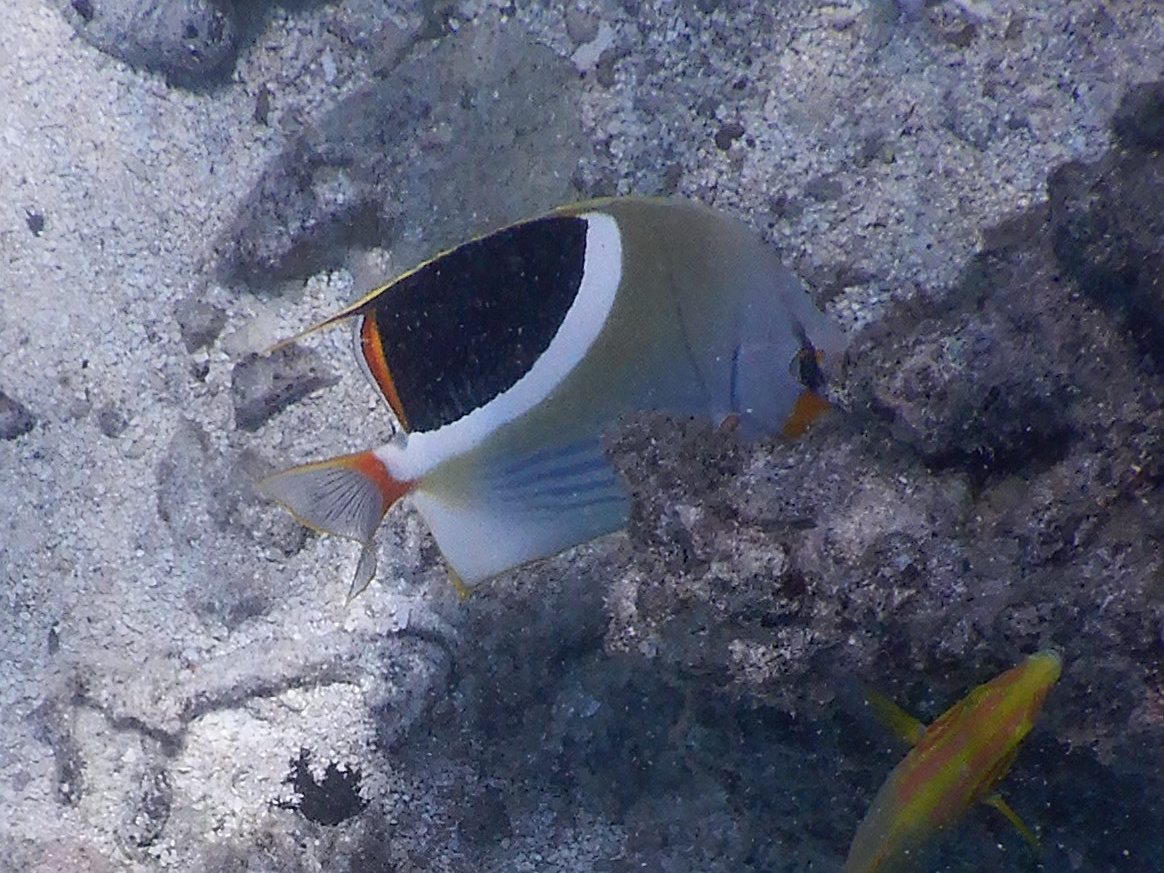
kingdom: Animalia
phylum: Chordata
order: Perciformes
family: Chaetodontidae
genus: Chaetodon
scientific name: Chaetodon ephippium
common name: Saddled butterflyfish
